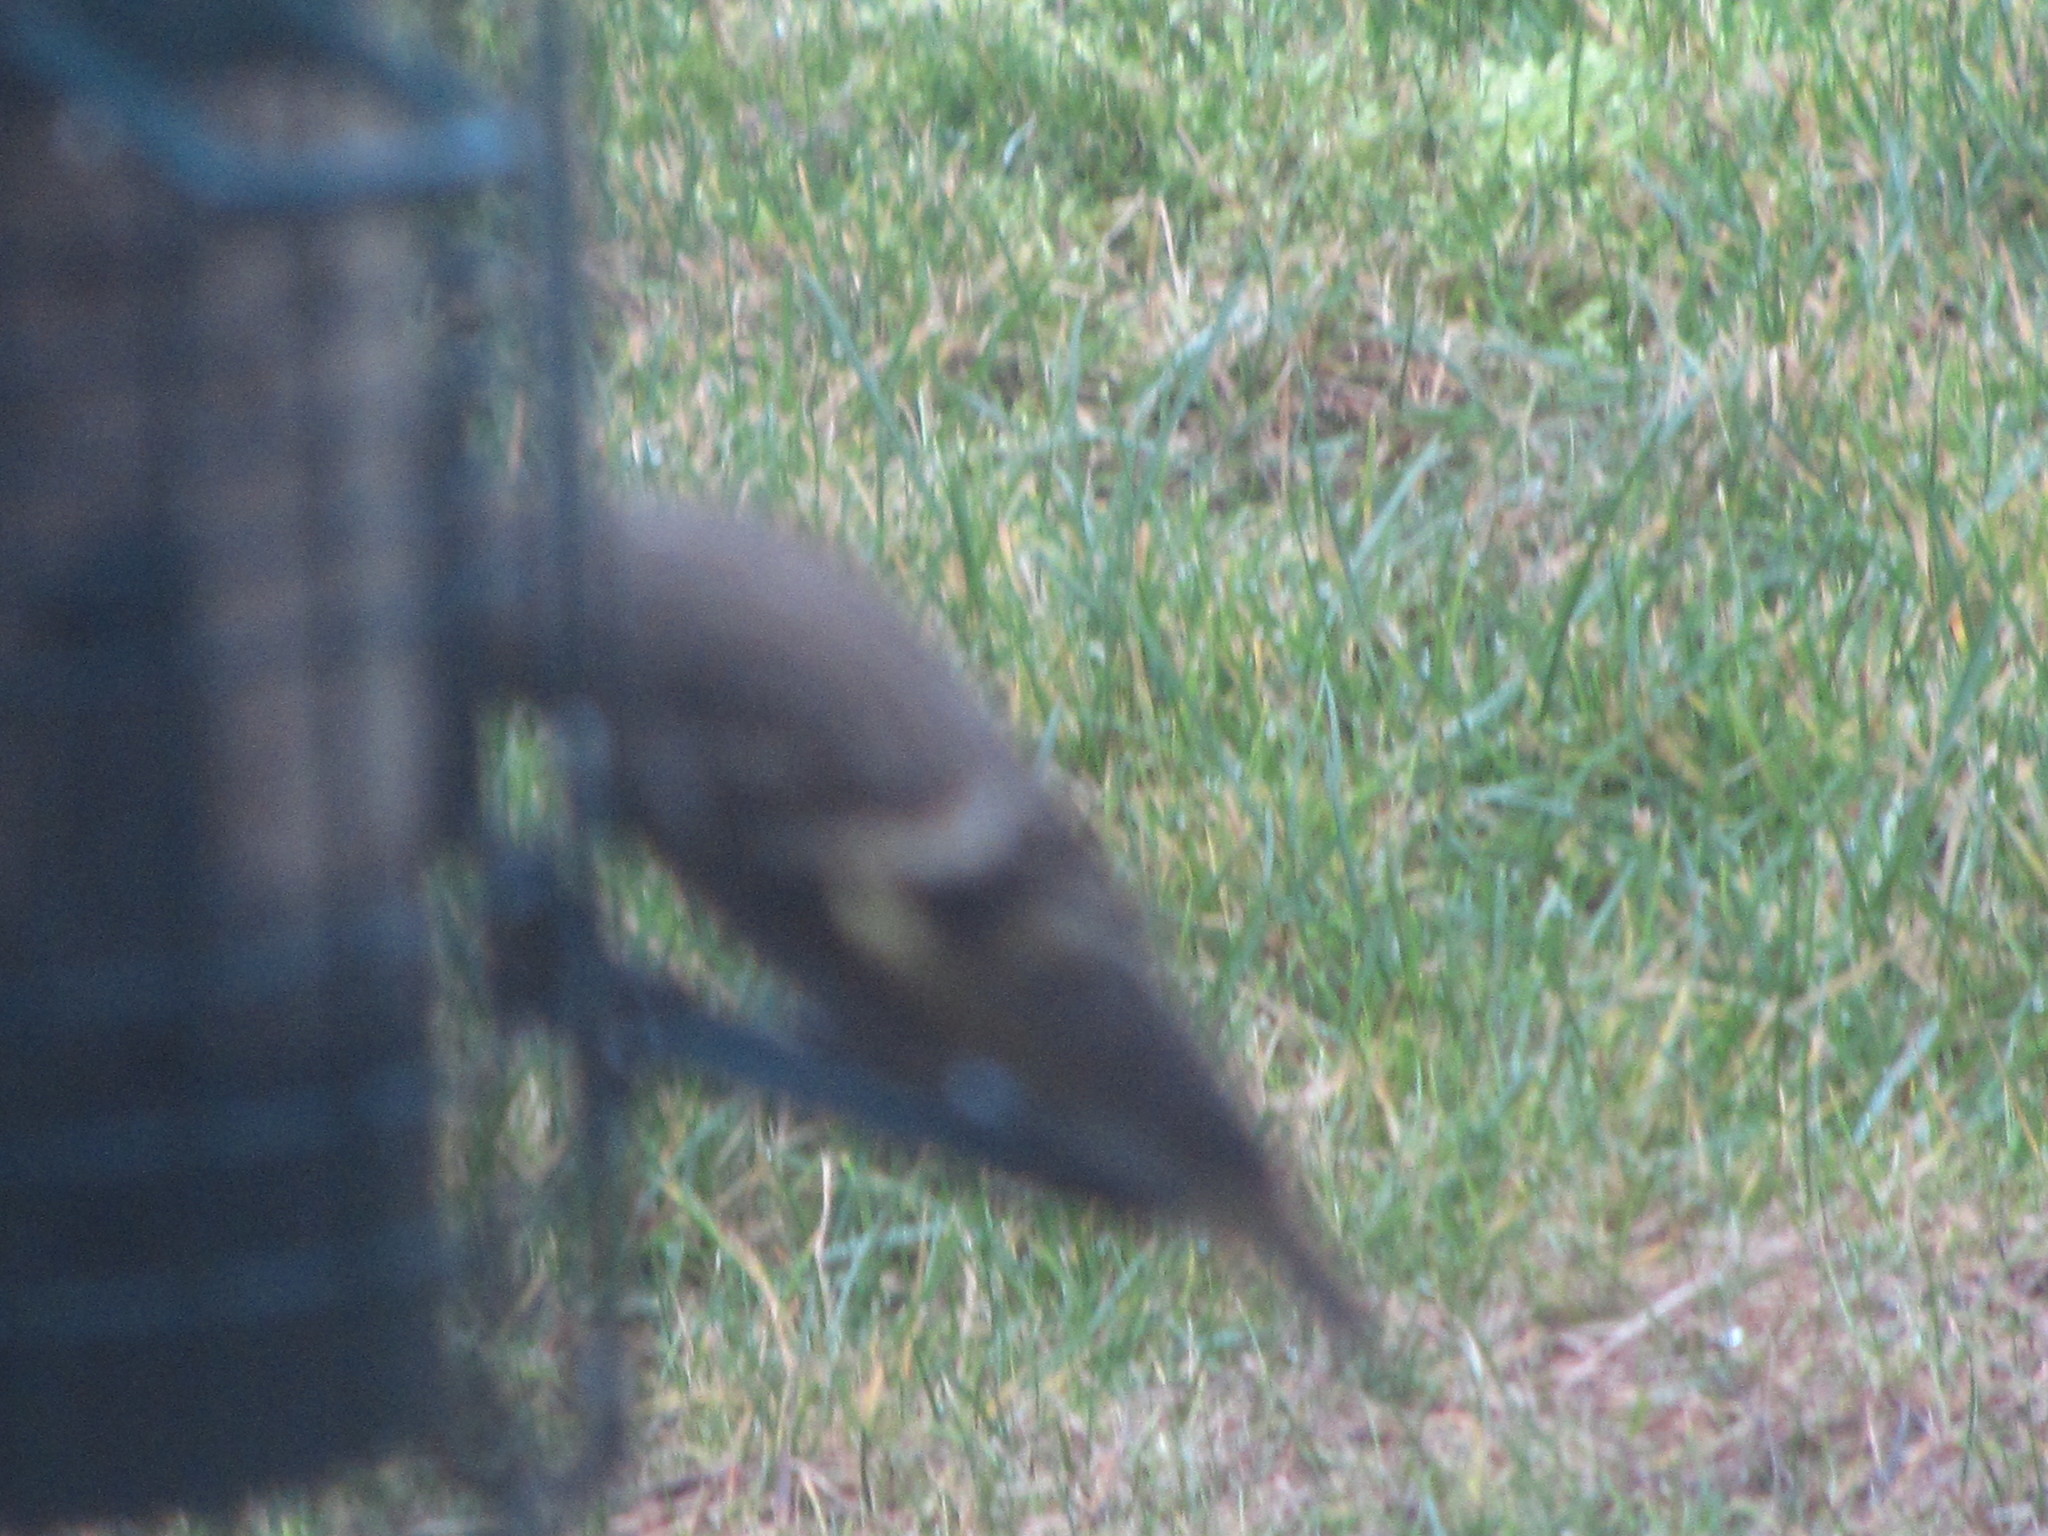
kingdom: Animalia
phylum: Chordata
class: Aves
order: Passeriformes
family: Fringillidae
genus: Spinus
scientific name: Spinus pinus
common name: Pine siskin
